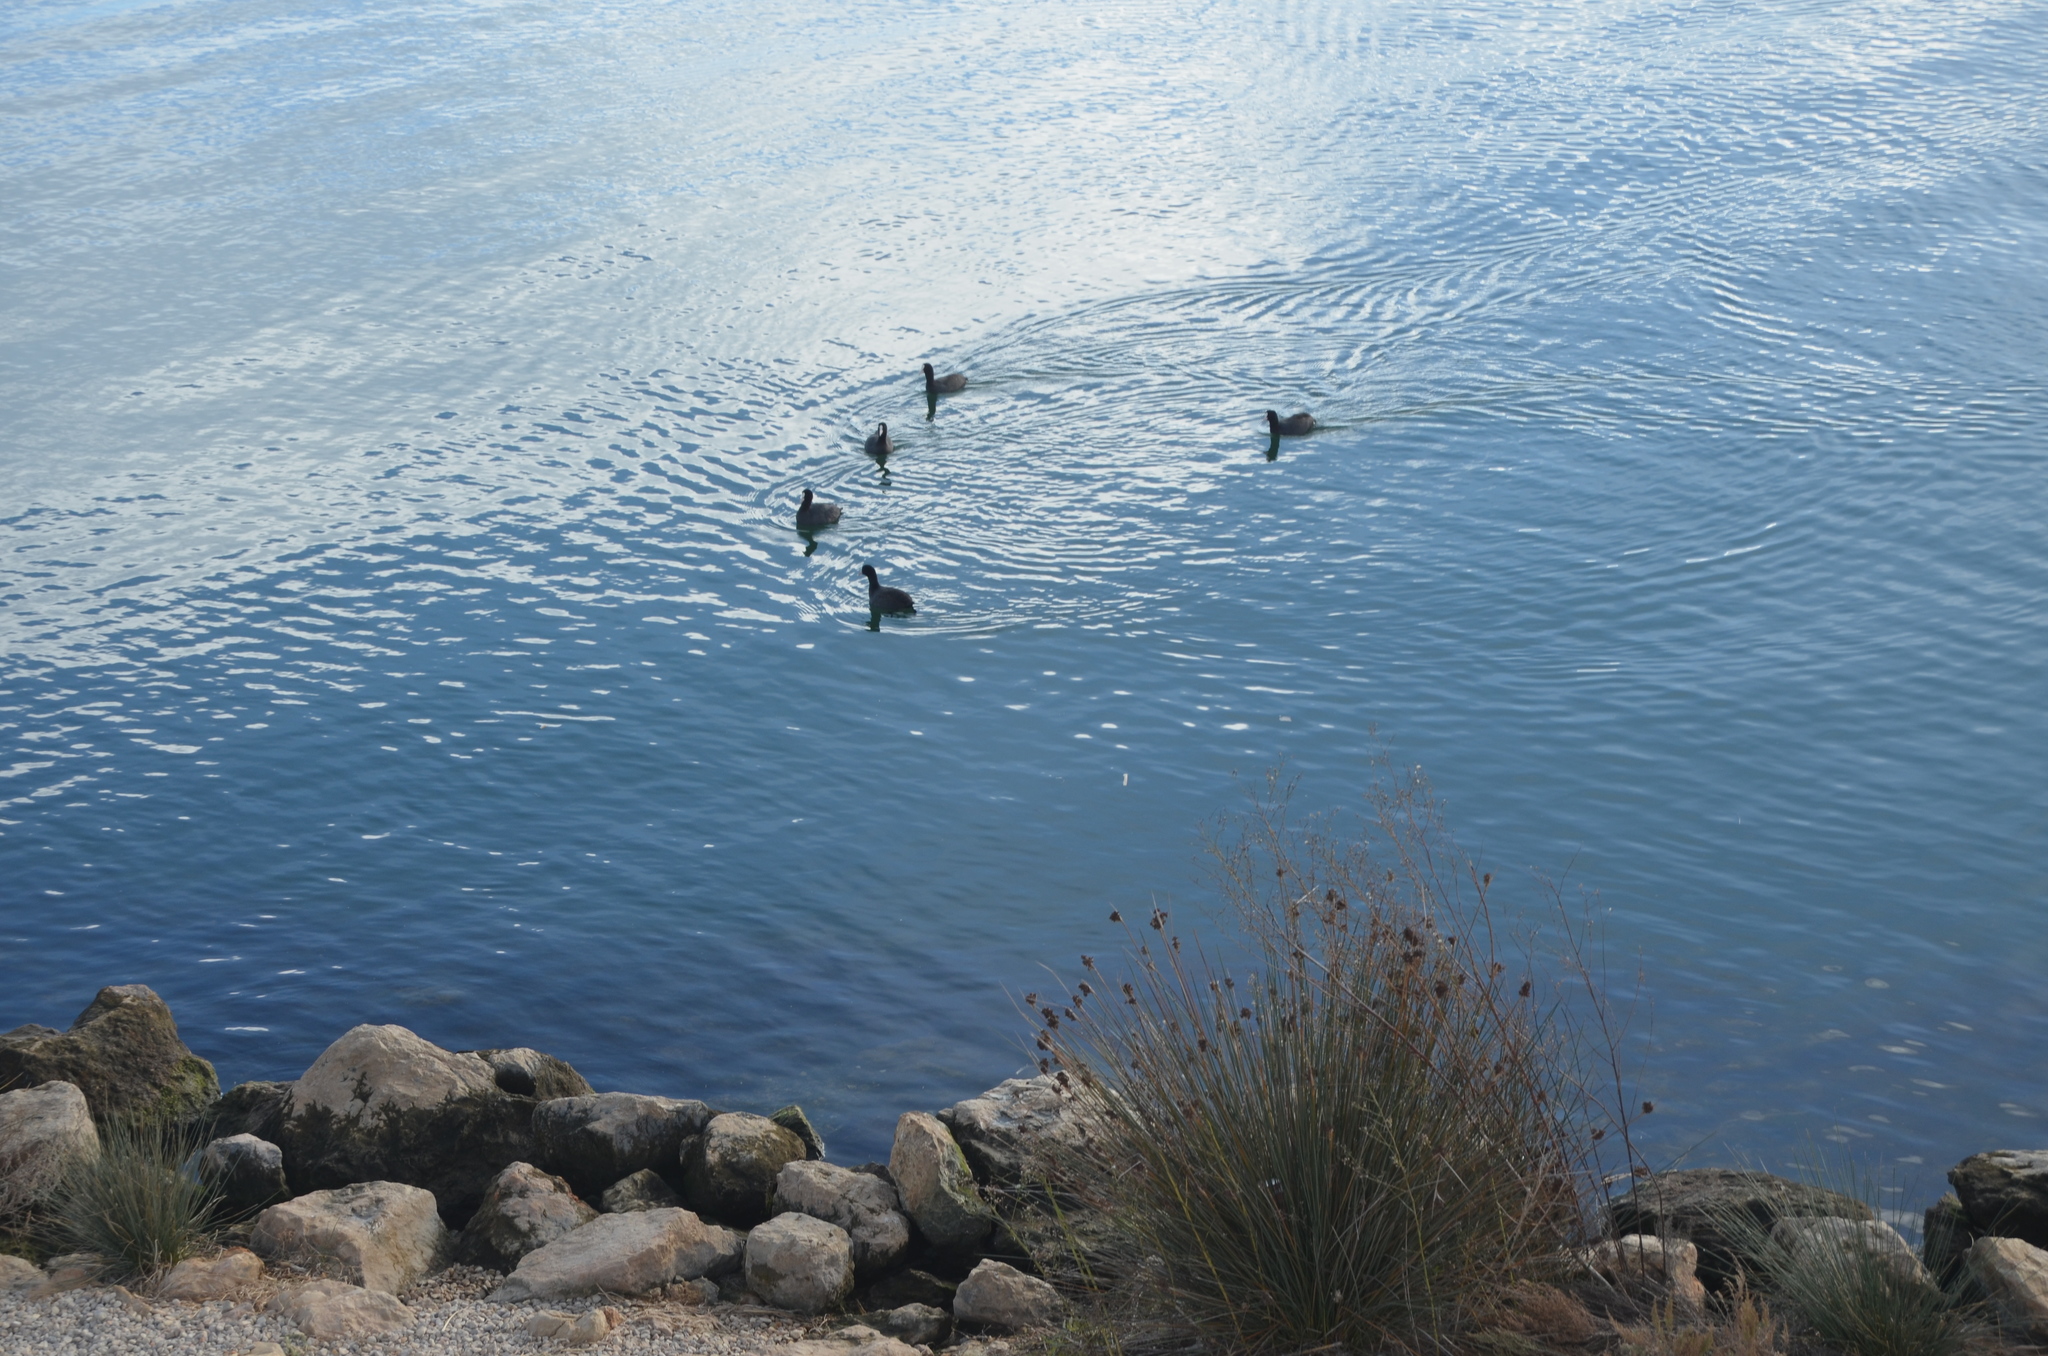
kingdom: Animalia
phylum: Chordata
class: Aves
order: Gruiformes
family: Rallidae
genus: Fulica
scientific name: Fulica atra
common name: Eurasian coot
